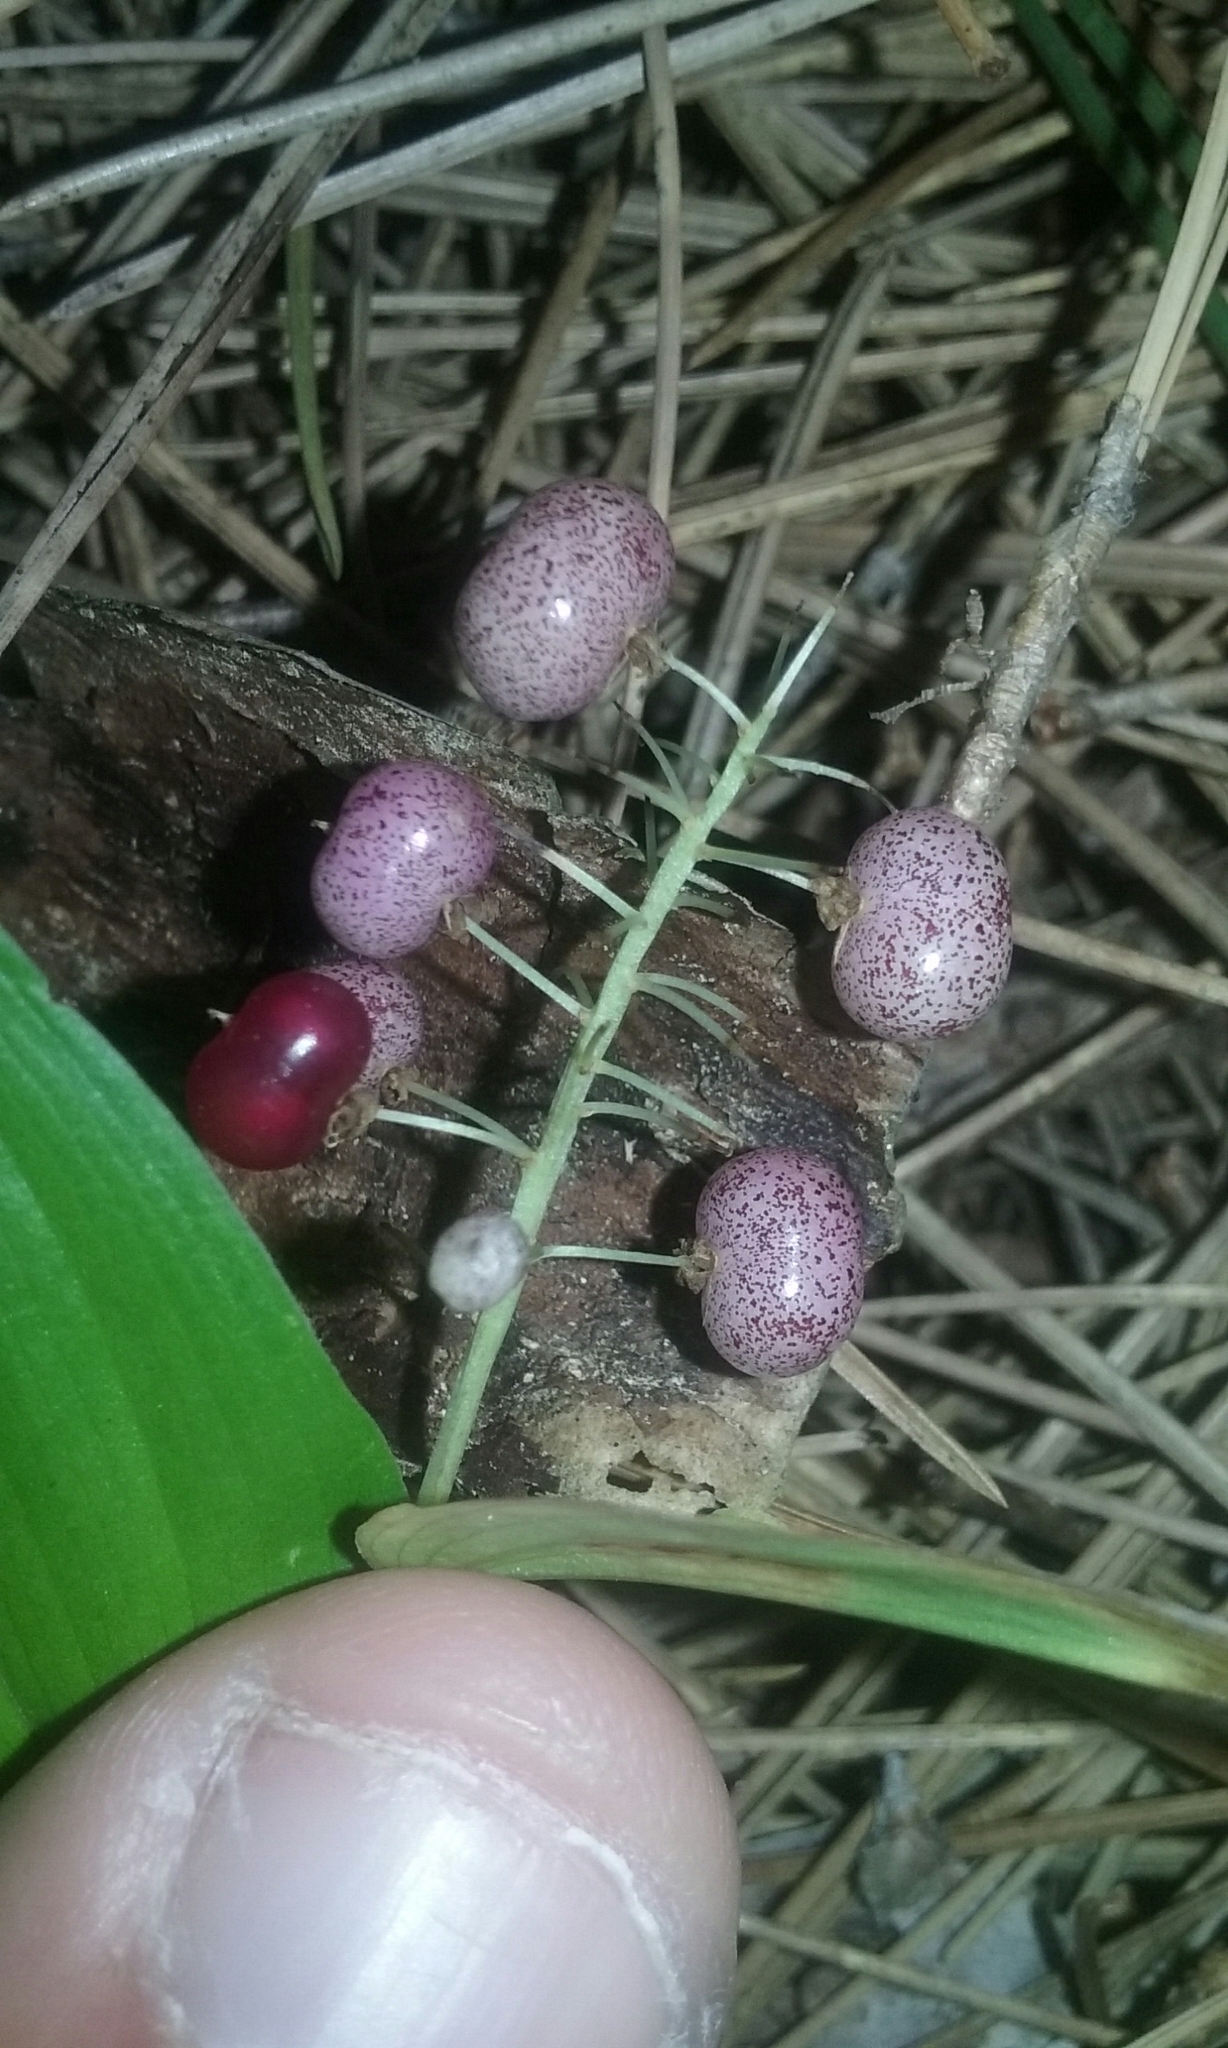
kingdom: Plantae
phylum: Tracheophyta
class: Liliopsida
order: Asparagales
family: Asparagaceae
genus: Maianthemum
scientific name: Maianthemum canadense
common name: False lily-of-the-valley
